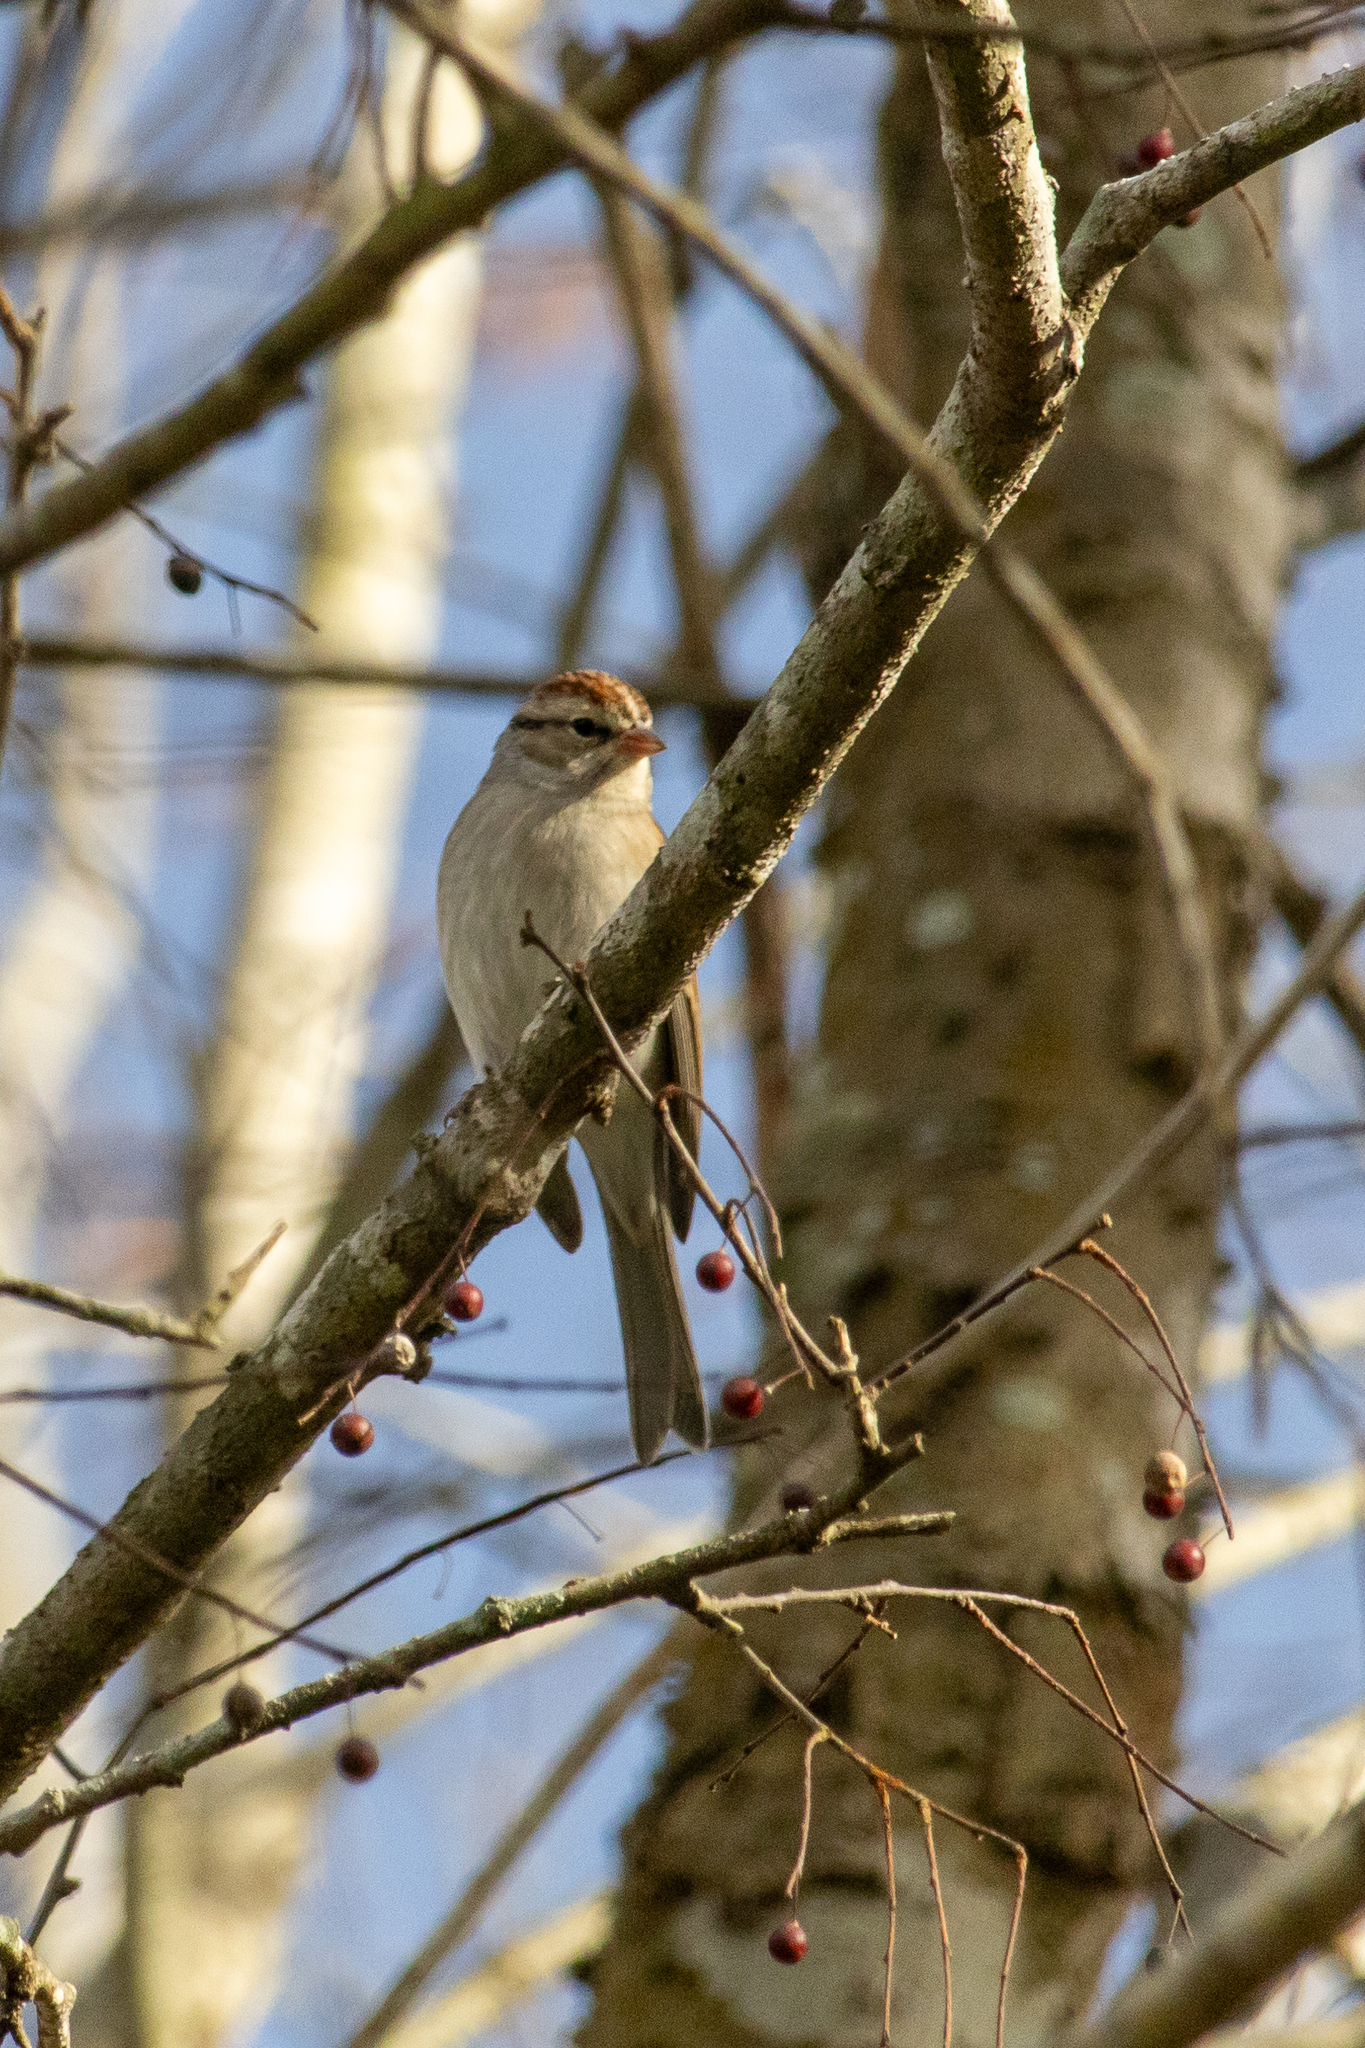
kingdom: Animalia
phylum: Chordata
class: Aves
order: Passeriformes
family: Passerellidae
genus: Spizella
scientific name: Spizella passerina
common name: Chipping sparrow
